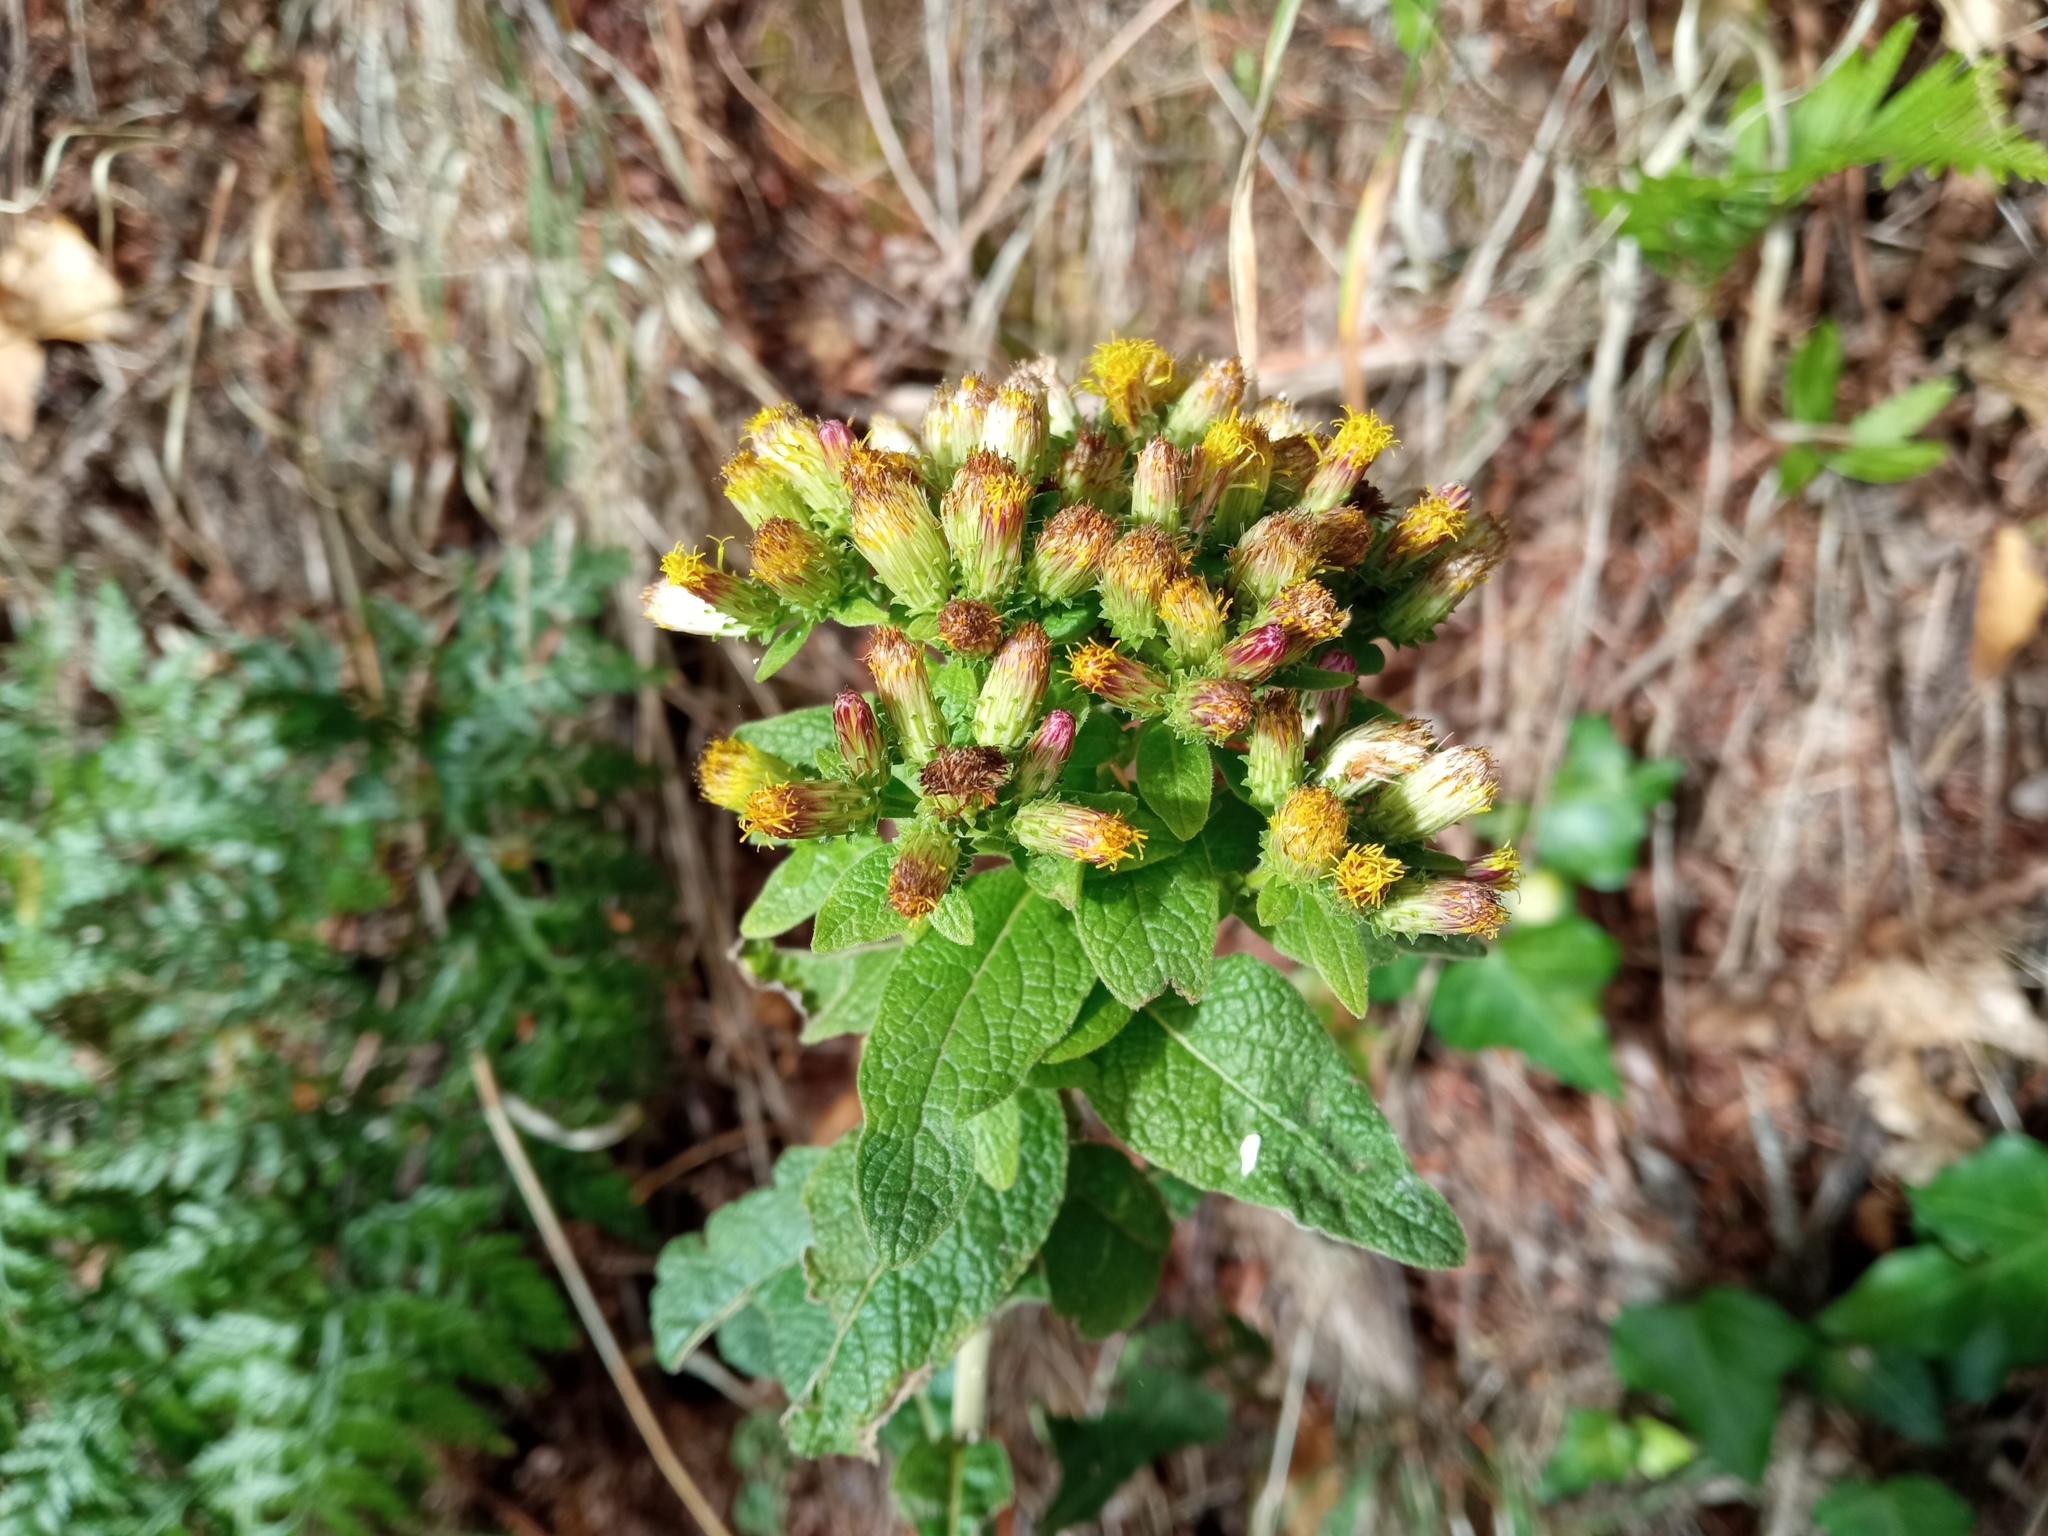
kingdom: Plantae
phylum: Tracheophyta
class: Magnoliopsida
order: Asterales
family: Asteraceae
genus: Pentanema
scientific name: Pentanema squarrosum
